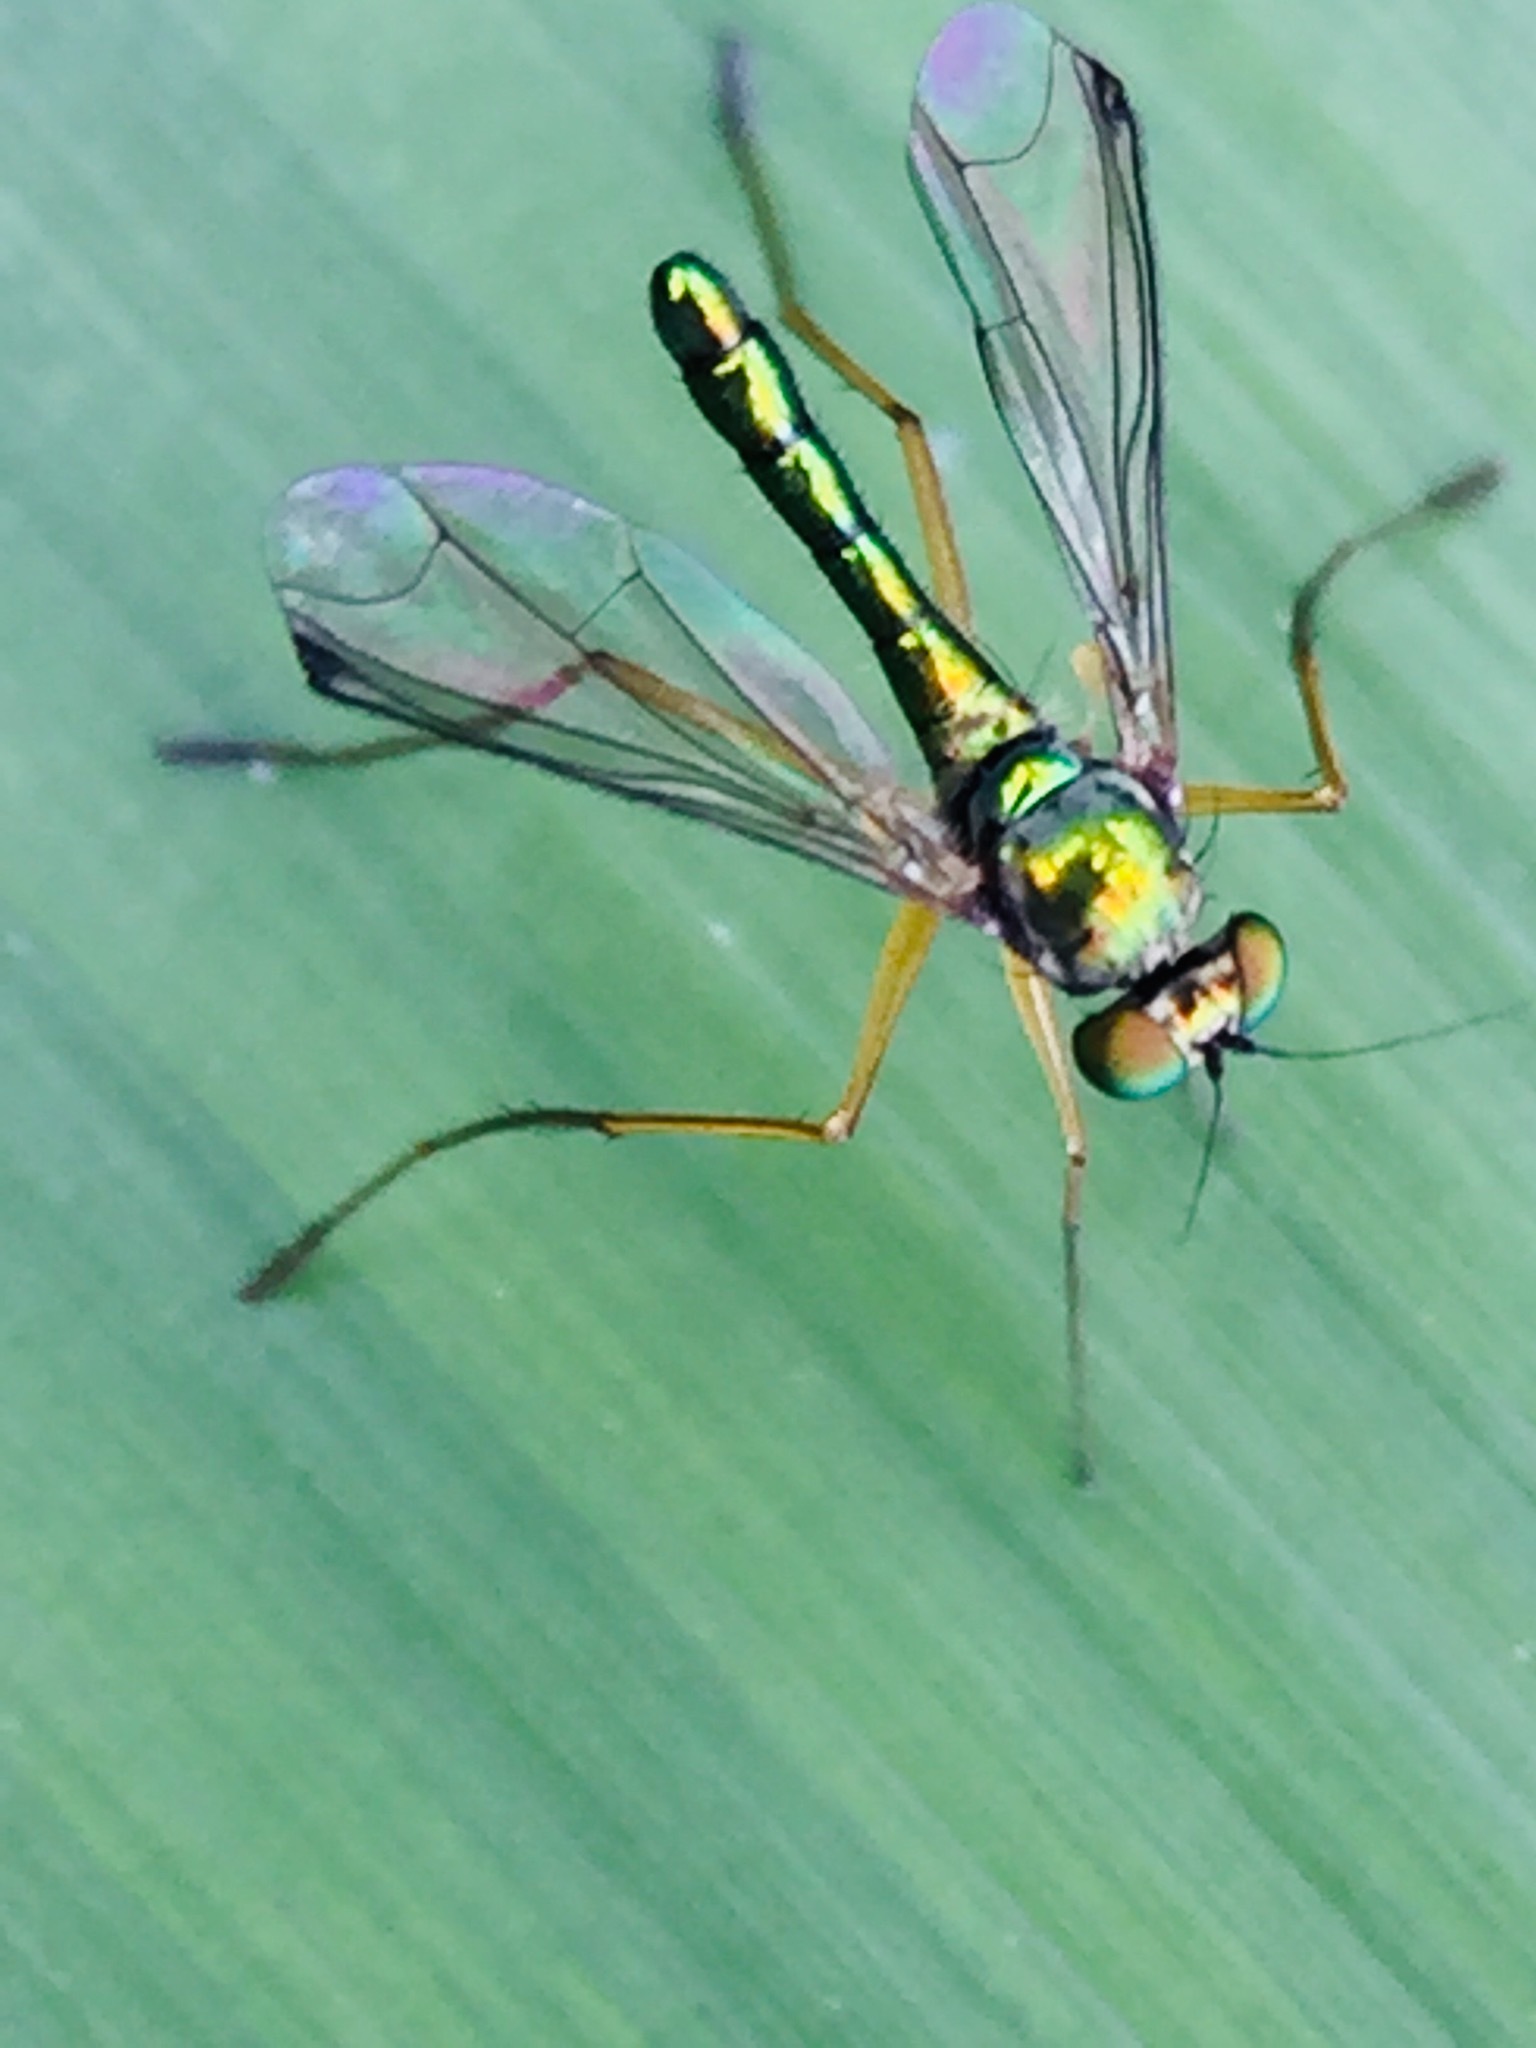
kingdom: Animalia
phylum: Arthropoda
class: Insecta
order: Diptera
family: Dolichopodidae
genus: Parentia
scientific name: Parentia anomalicosta
